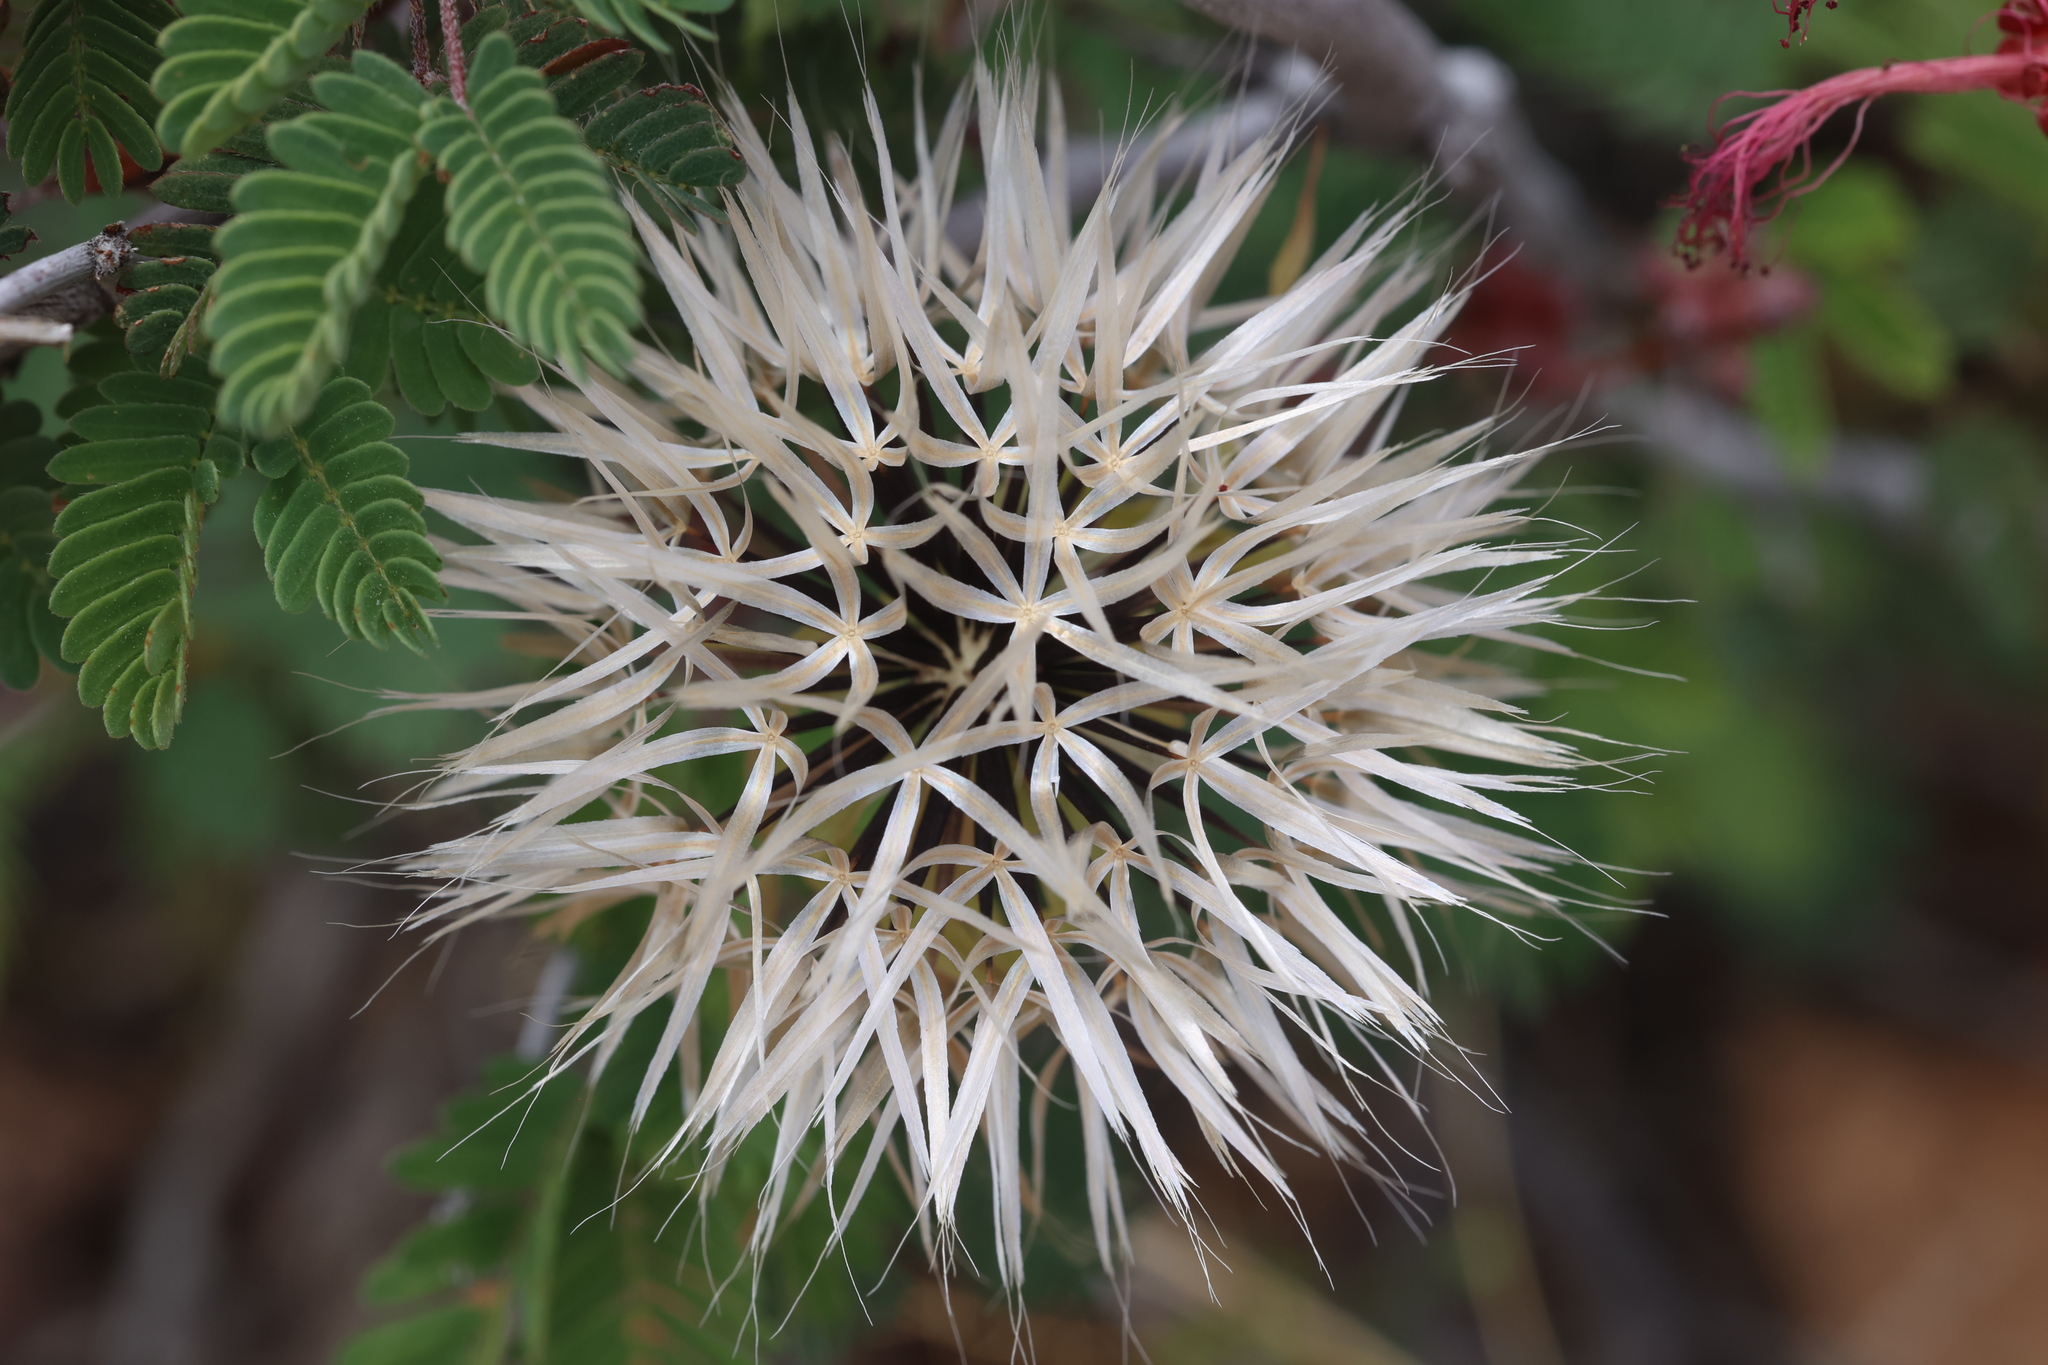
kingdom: Plantae
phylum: Tracheophyta
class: Magnoliopsida
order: Asterales
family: Asteraceae
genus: Microseris
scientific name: Microseris lindleyi
